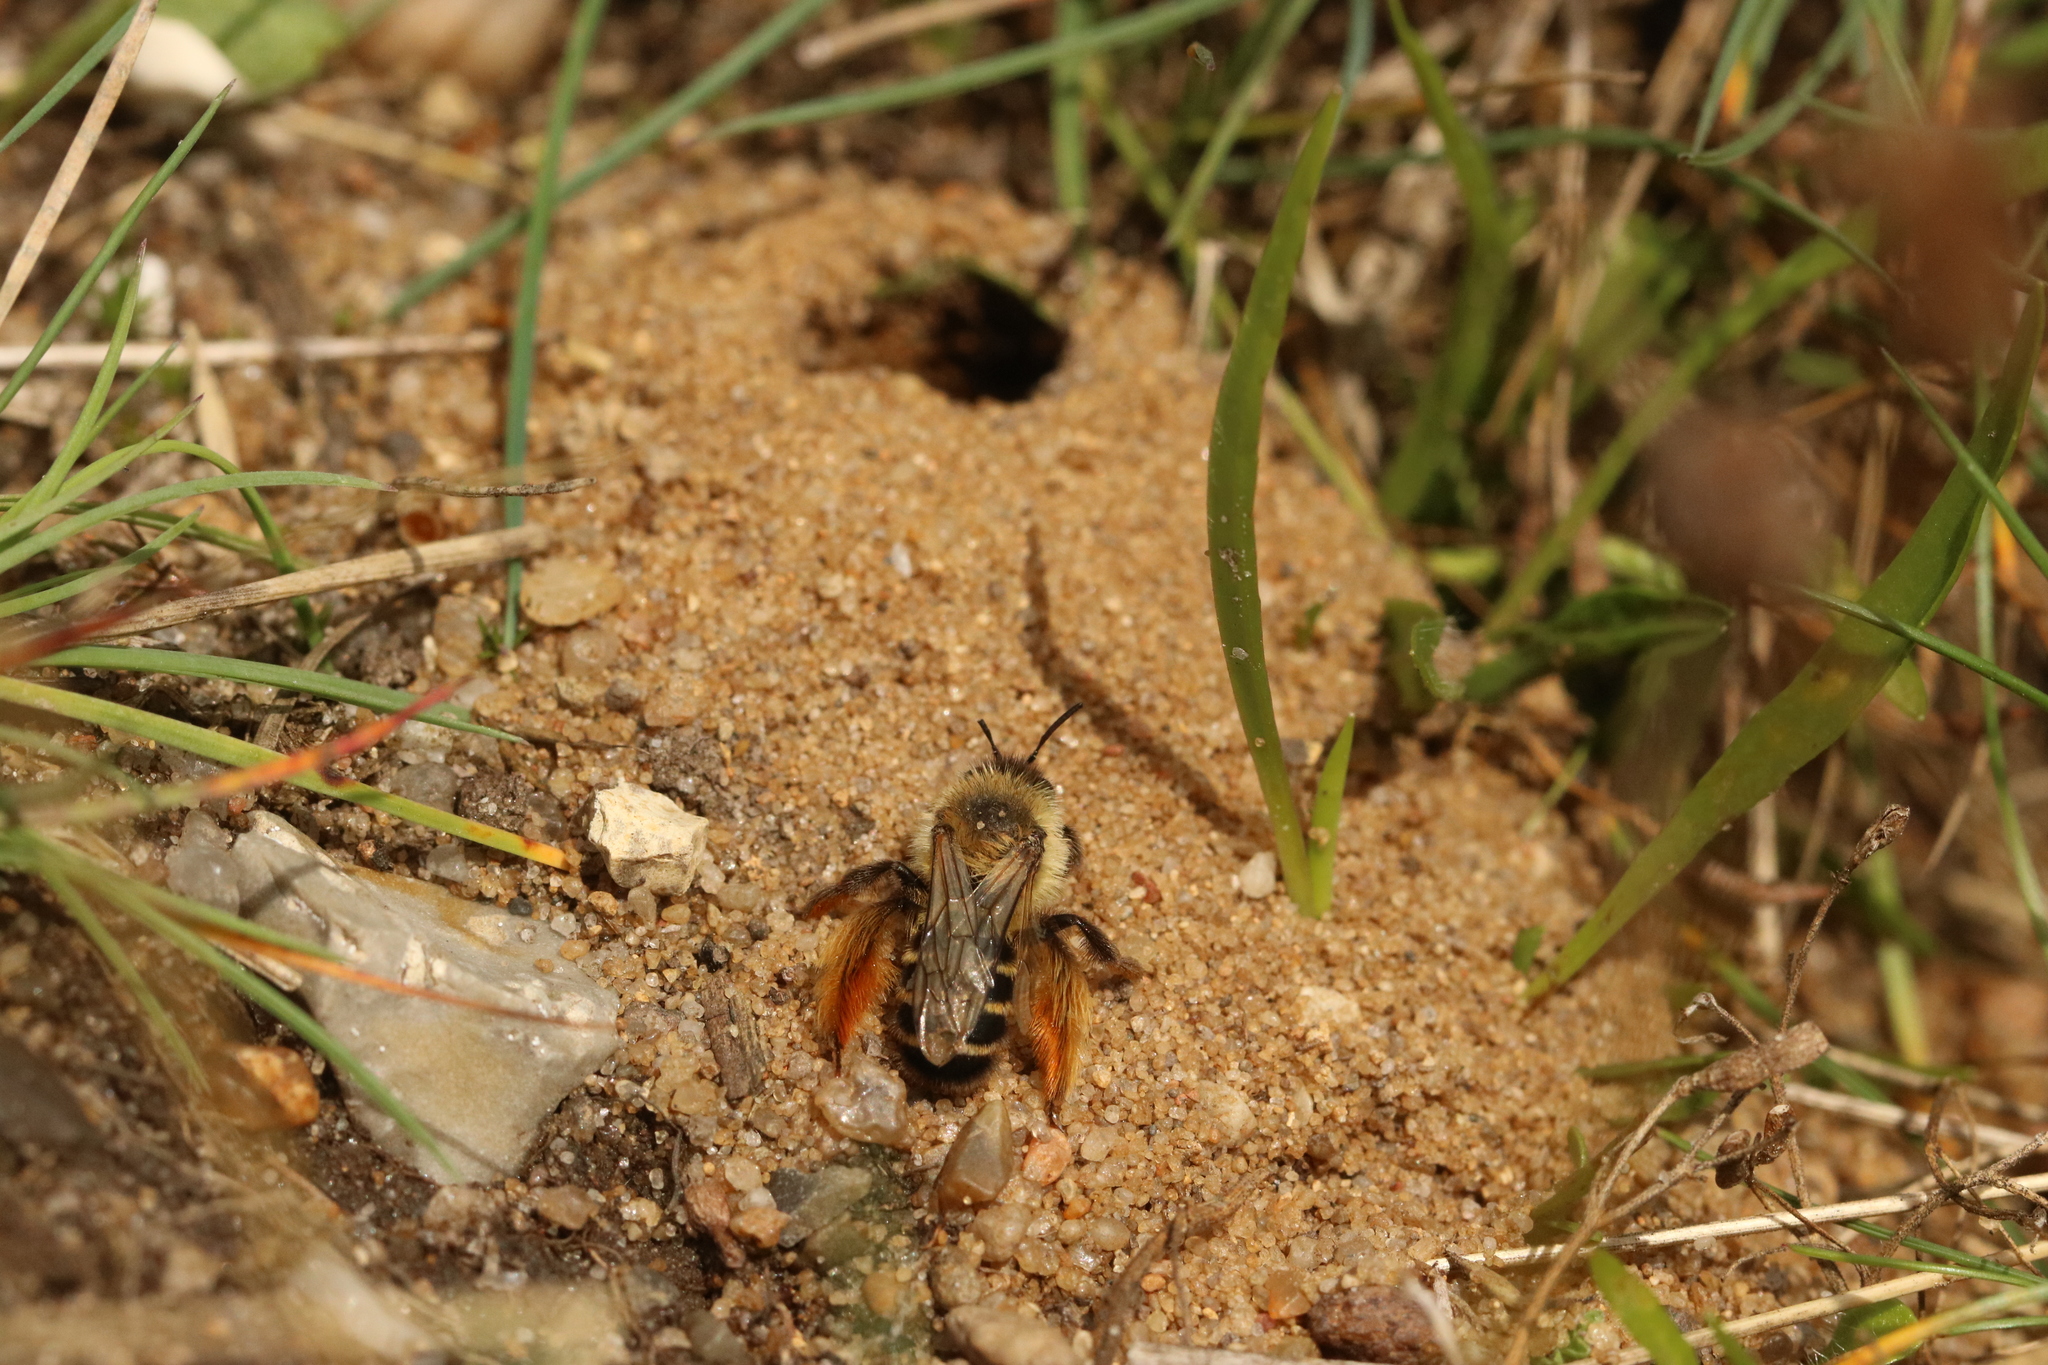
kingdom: Animalia
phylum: Arthropoda
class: Insecta
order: Hymenoptera
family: Melittidae
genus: Dasypoda
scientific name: Dasypoda hirtipes
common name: Pantaloon bee
